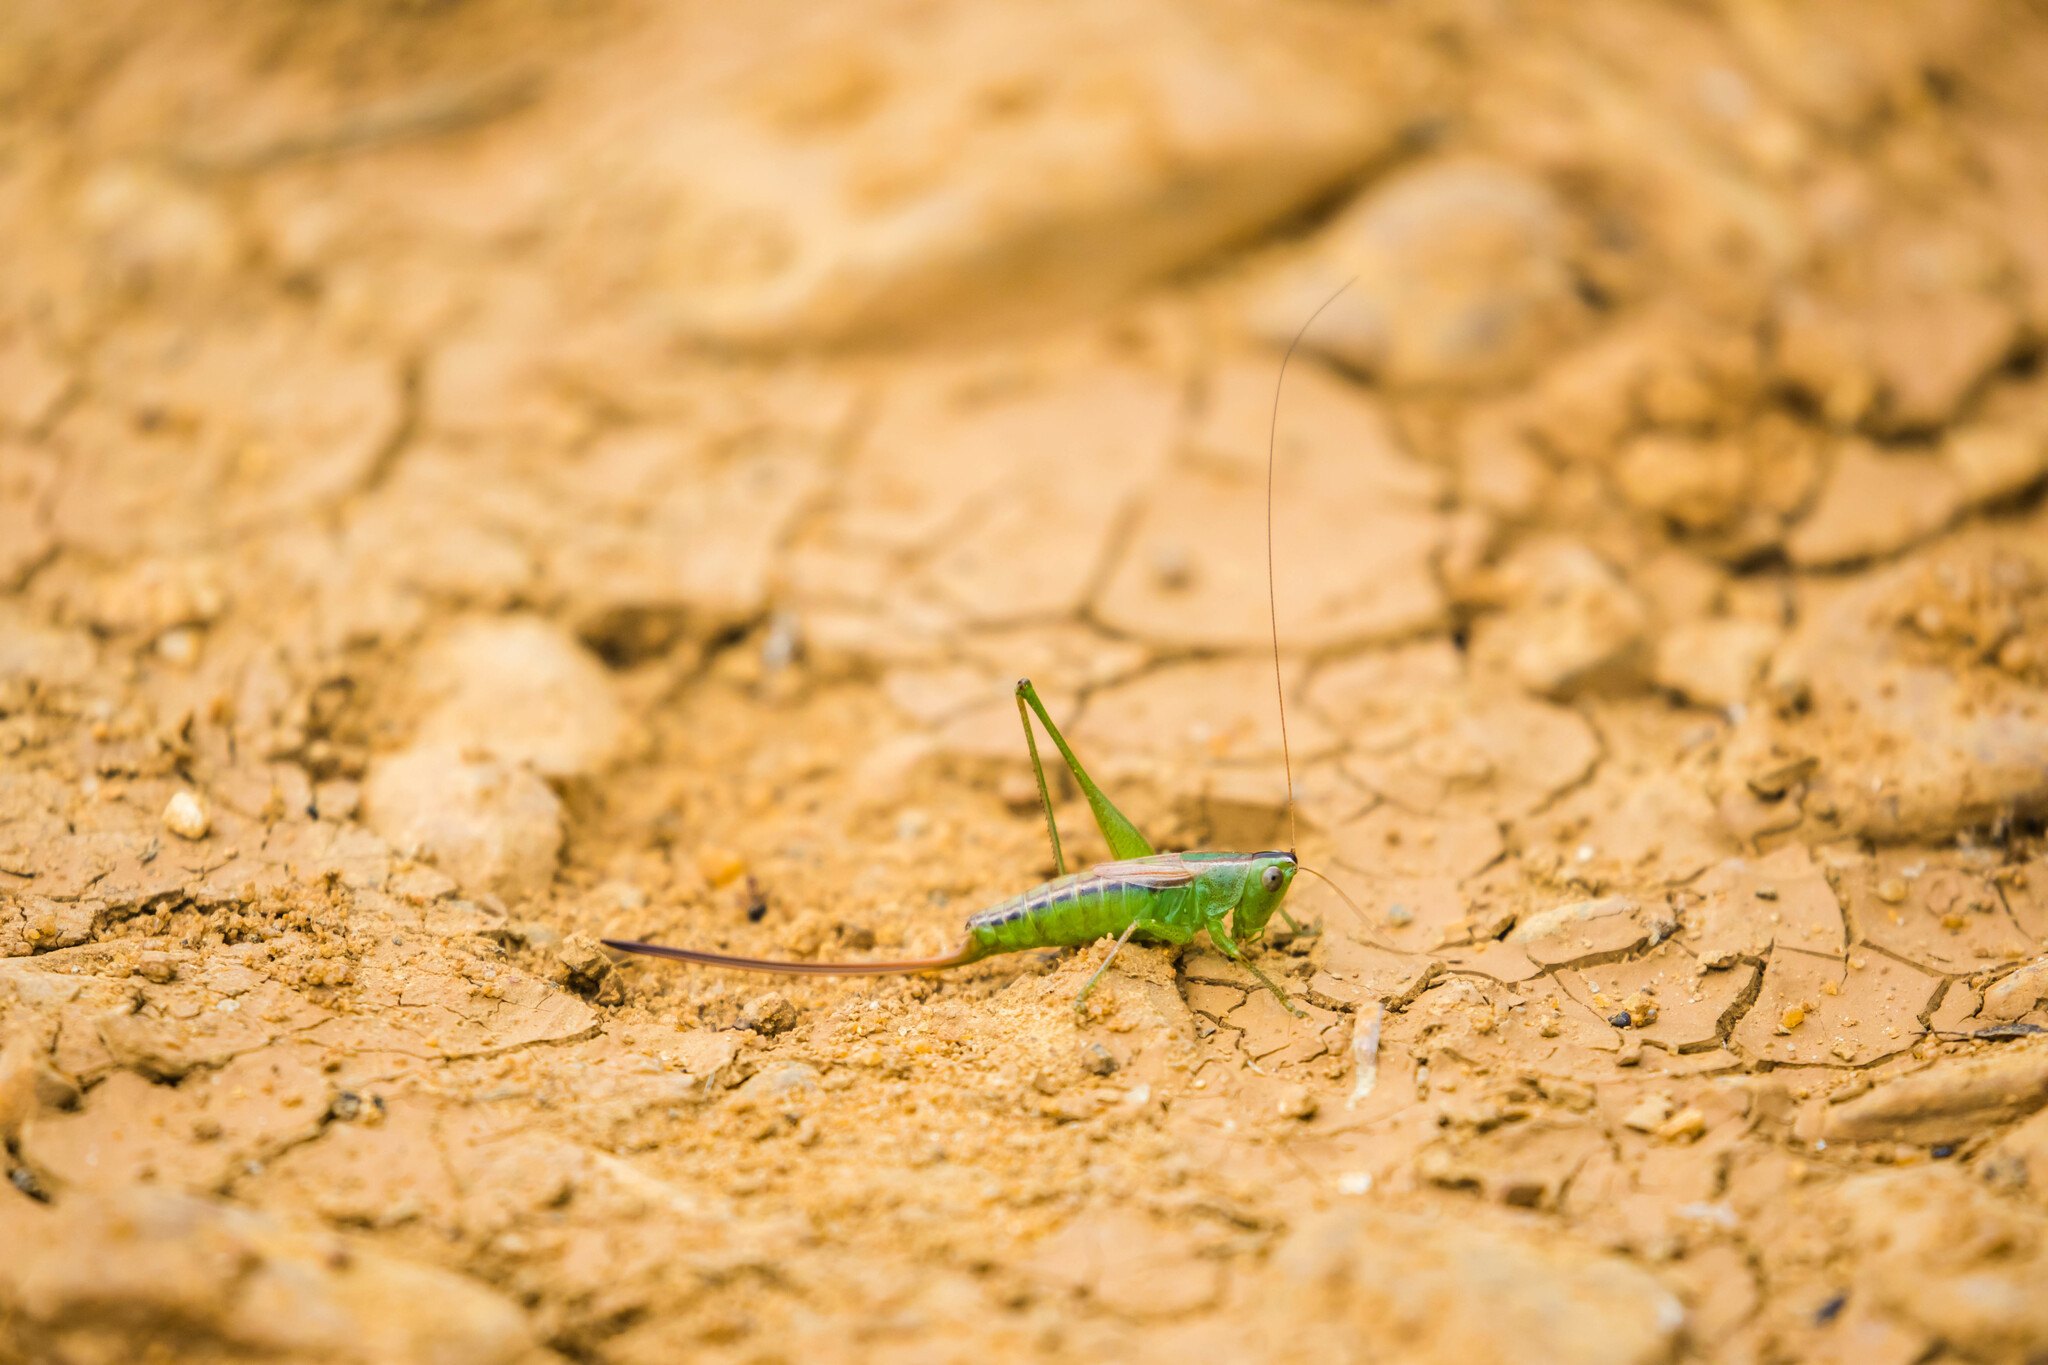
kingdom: Animalia
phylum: Arthropoda
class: Insecta
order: Orthoptera
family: Tettigoniidae
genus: Conocephalus
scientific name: Conocephalus strictus
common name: Straight-lanced katydid
